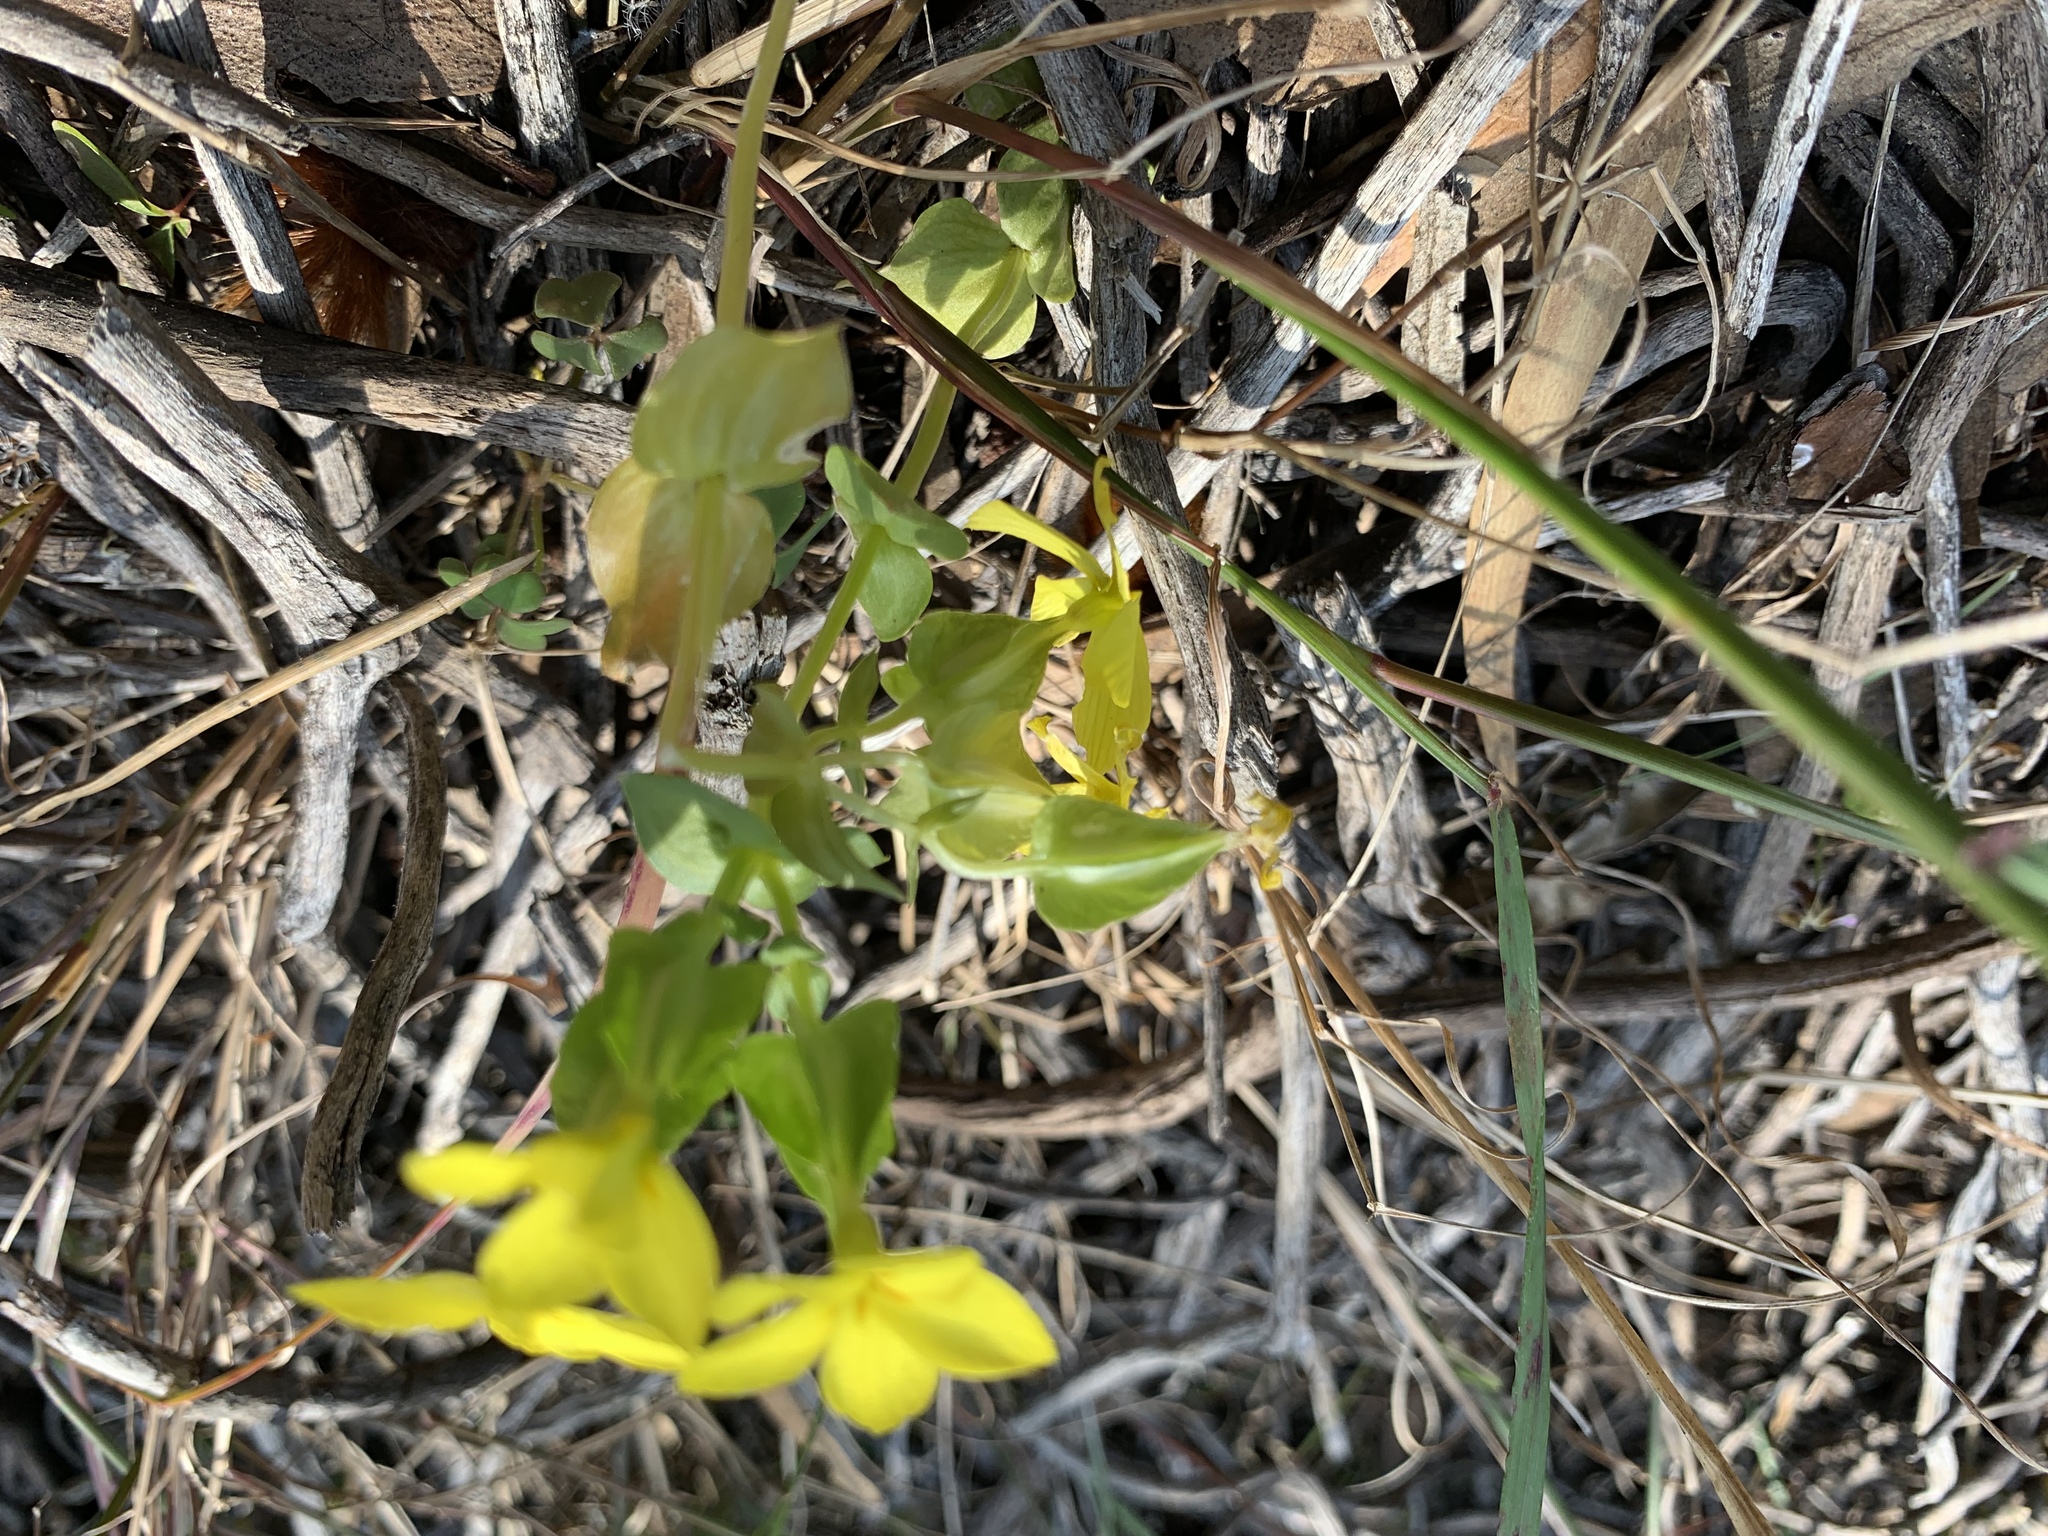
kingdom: Plantae
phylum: Tracheophyta
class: Magnoliopsida
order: Gentianales
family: Gentianaceae
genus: Sebaea
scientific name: Sebaea exacoides
